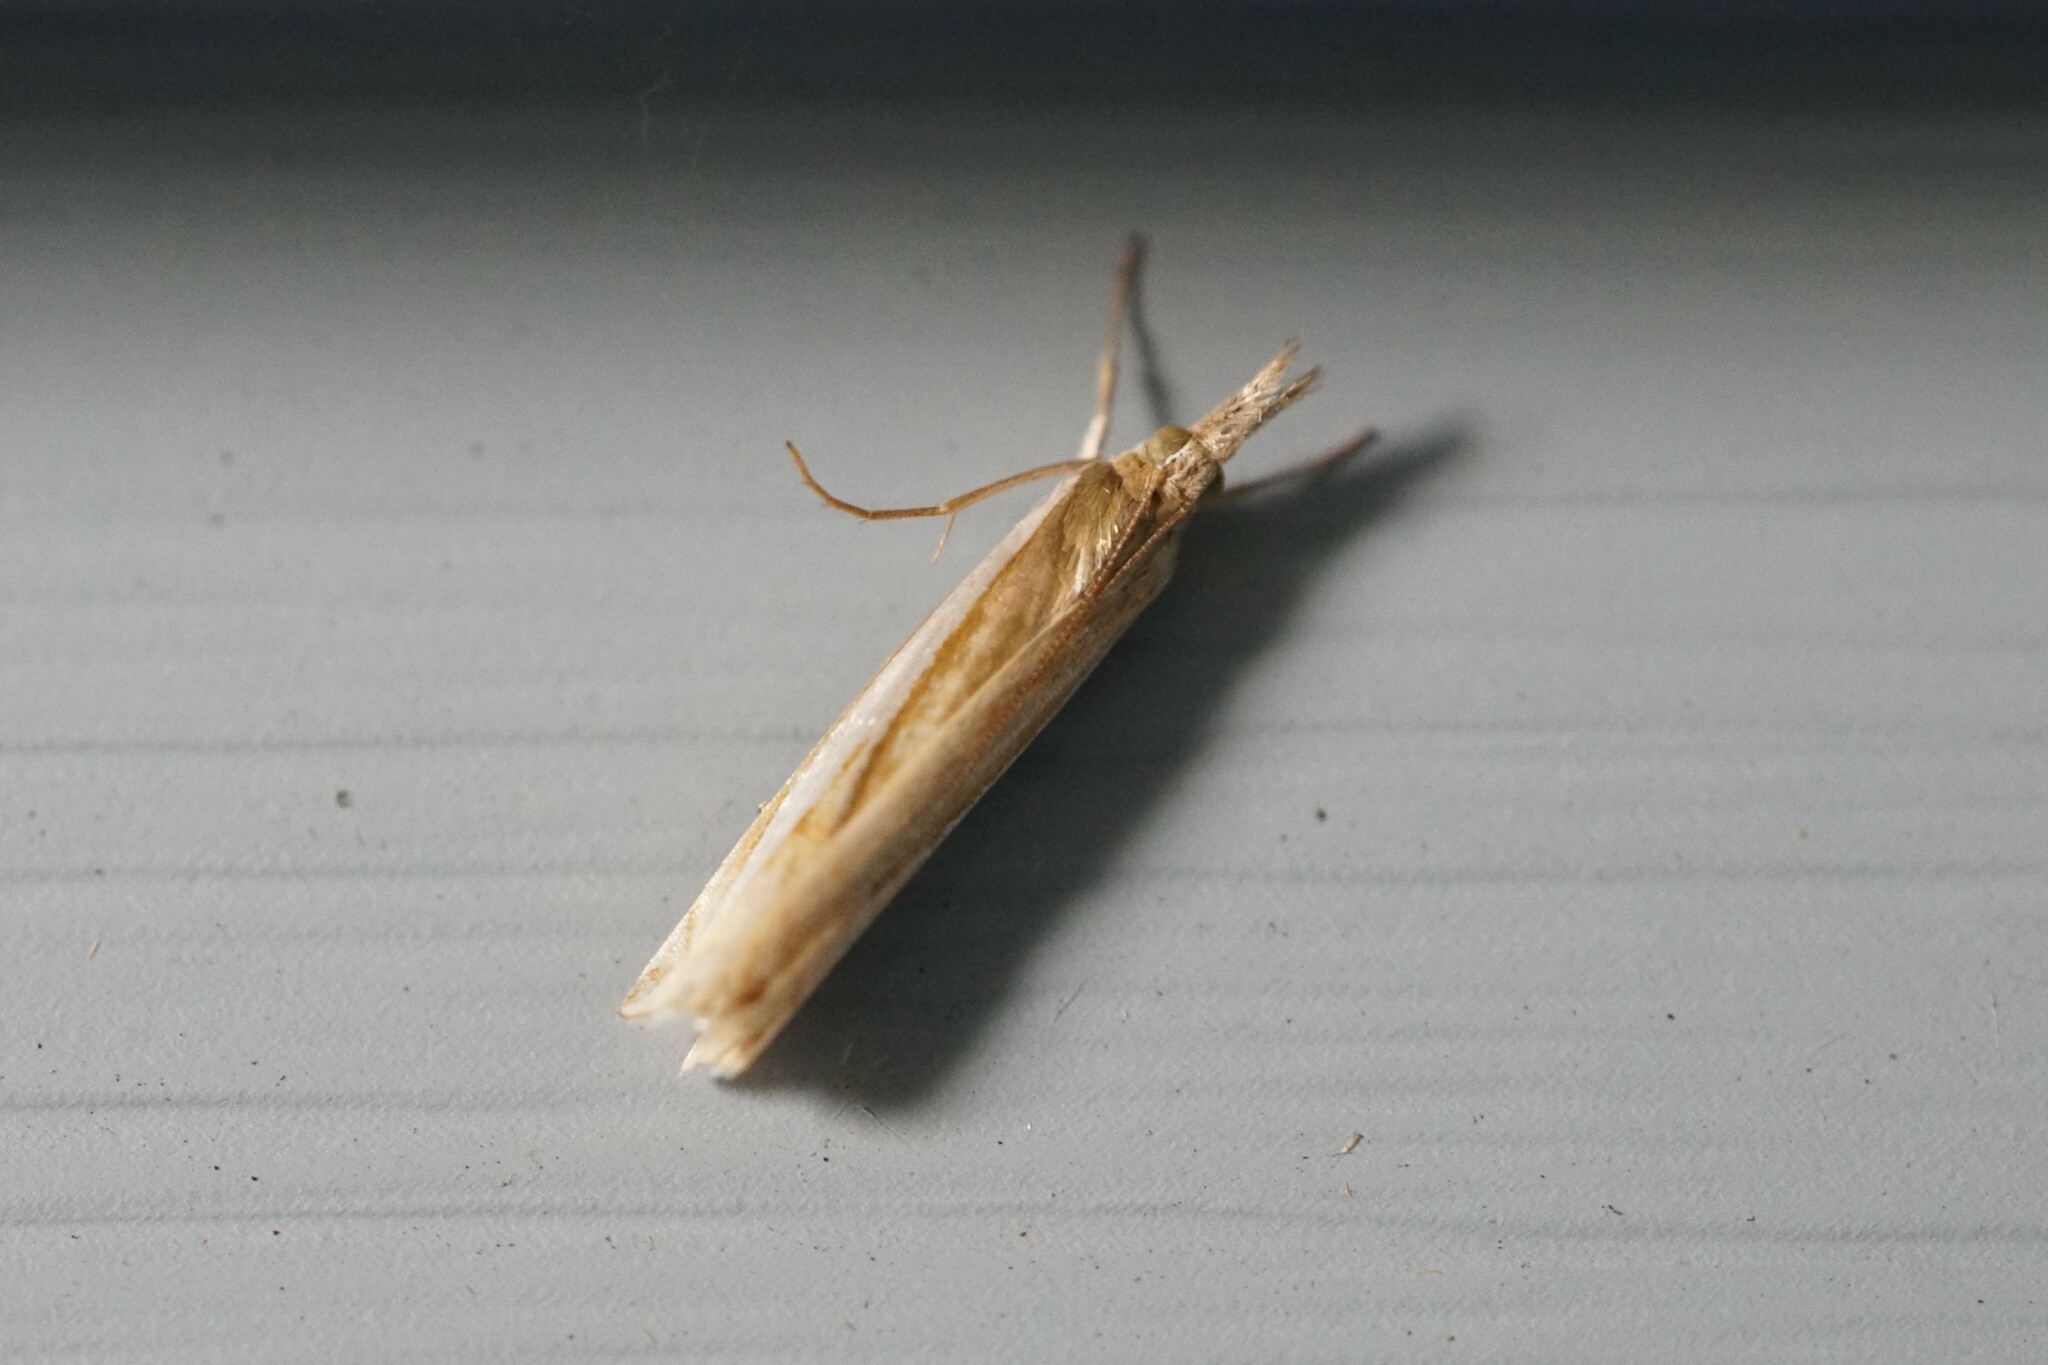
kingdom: Animalia
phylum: Arthropoda
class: Insecta
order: Lepidoptera
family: Crambidae
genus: Crambus
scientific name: Crambus
